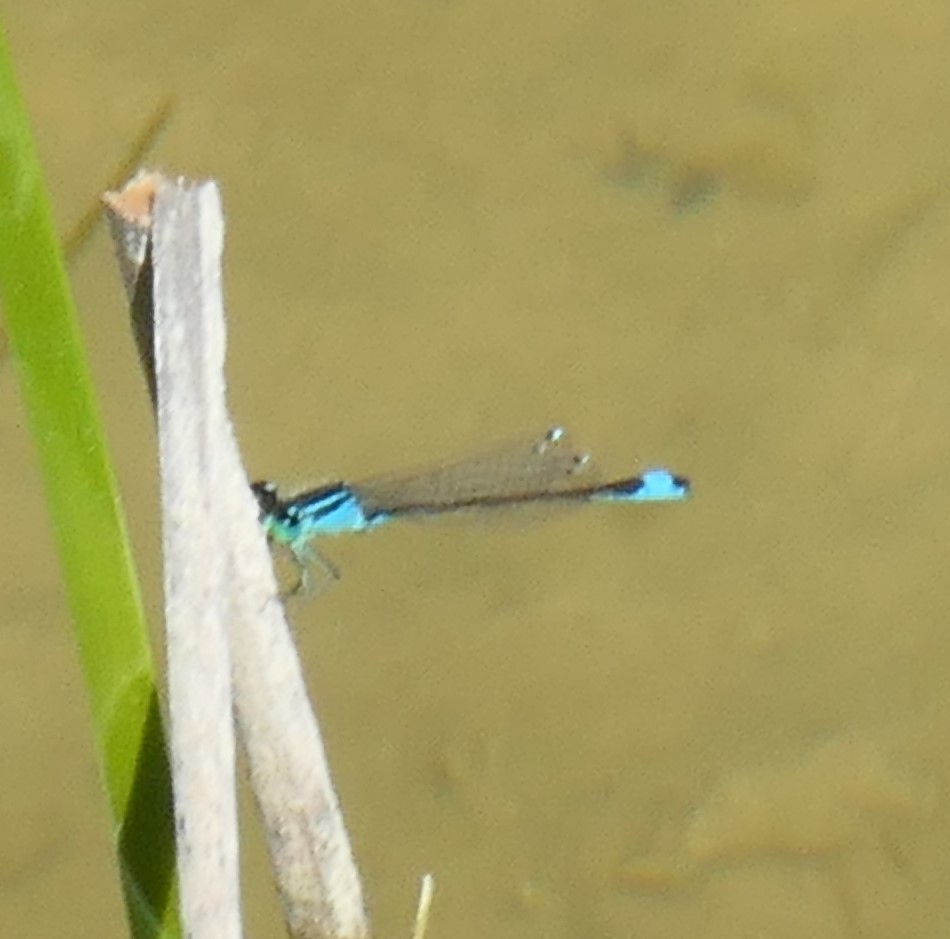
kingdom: Animalia
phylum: Arthropoda
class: Insecta
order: Odonata
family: Coenagrionidae
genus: Ischnura
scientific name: Ischnura elegans
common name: Blue-tailed damselfly
